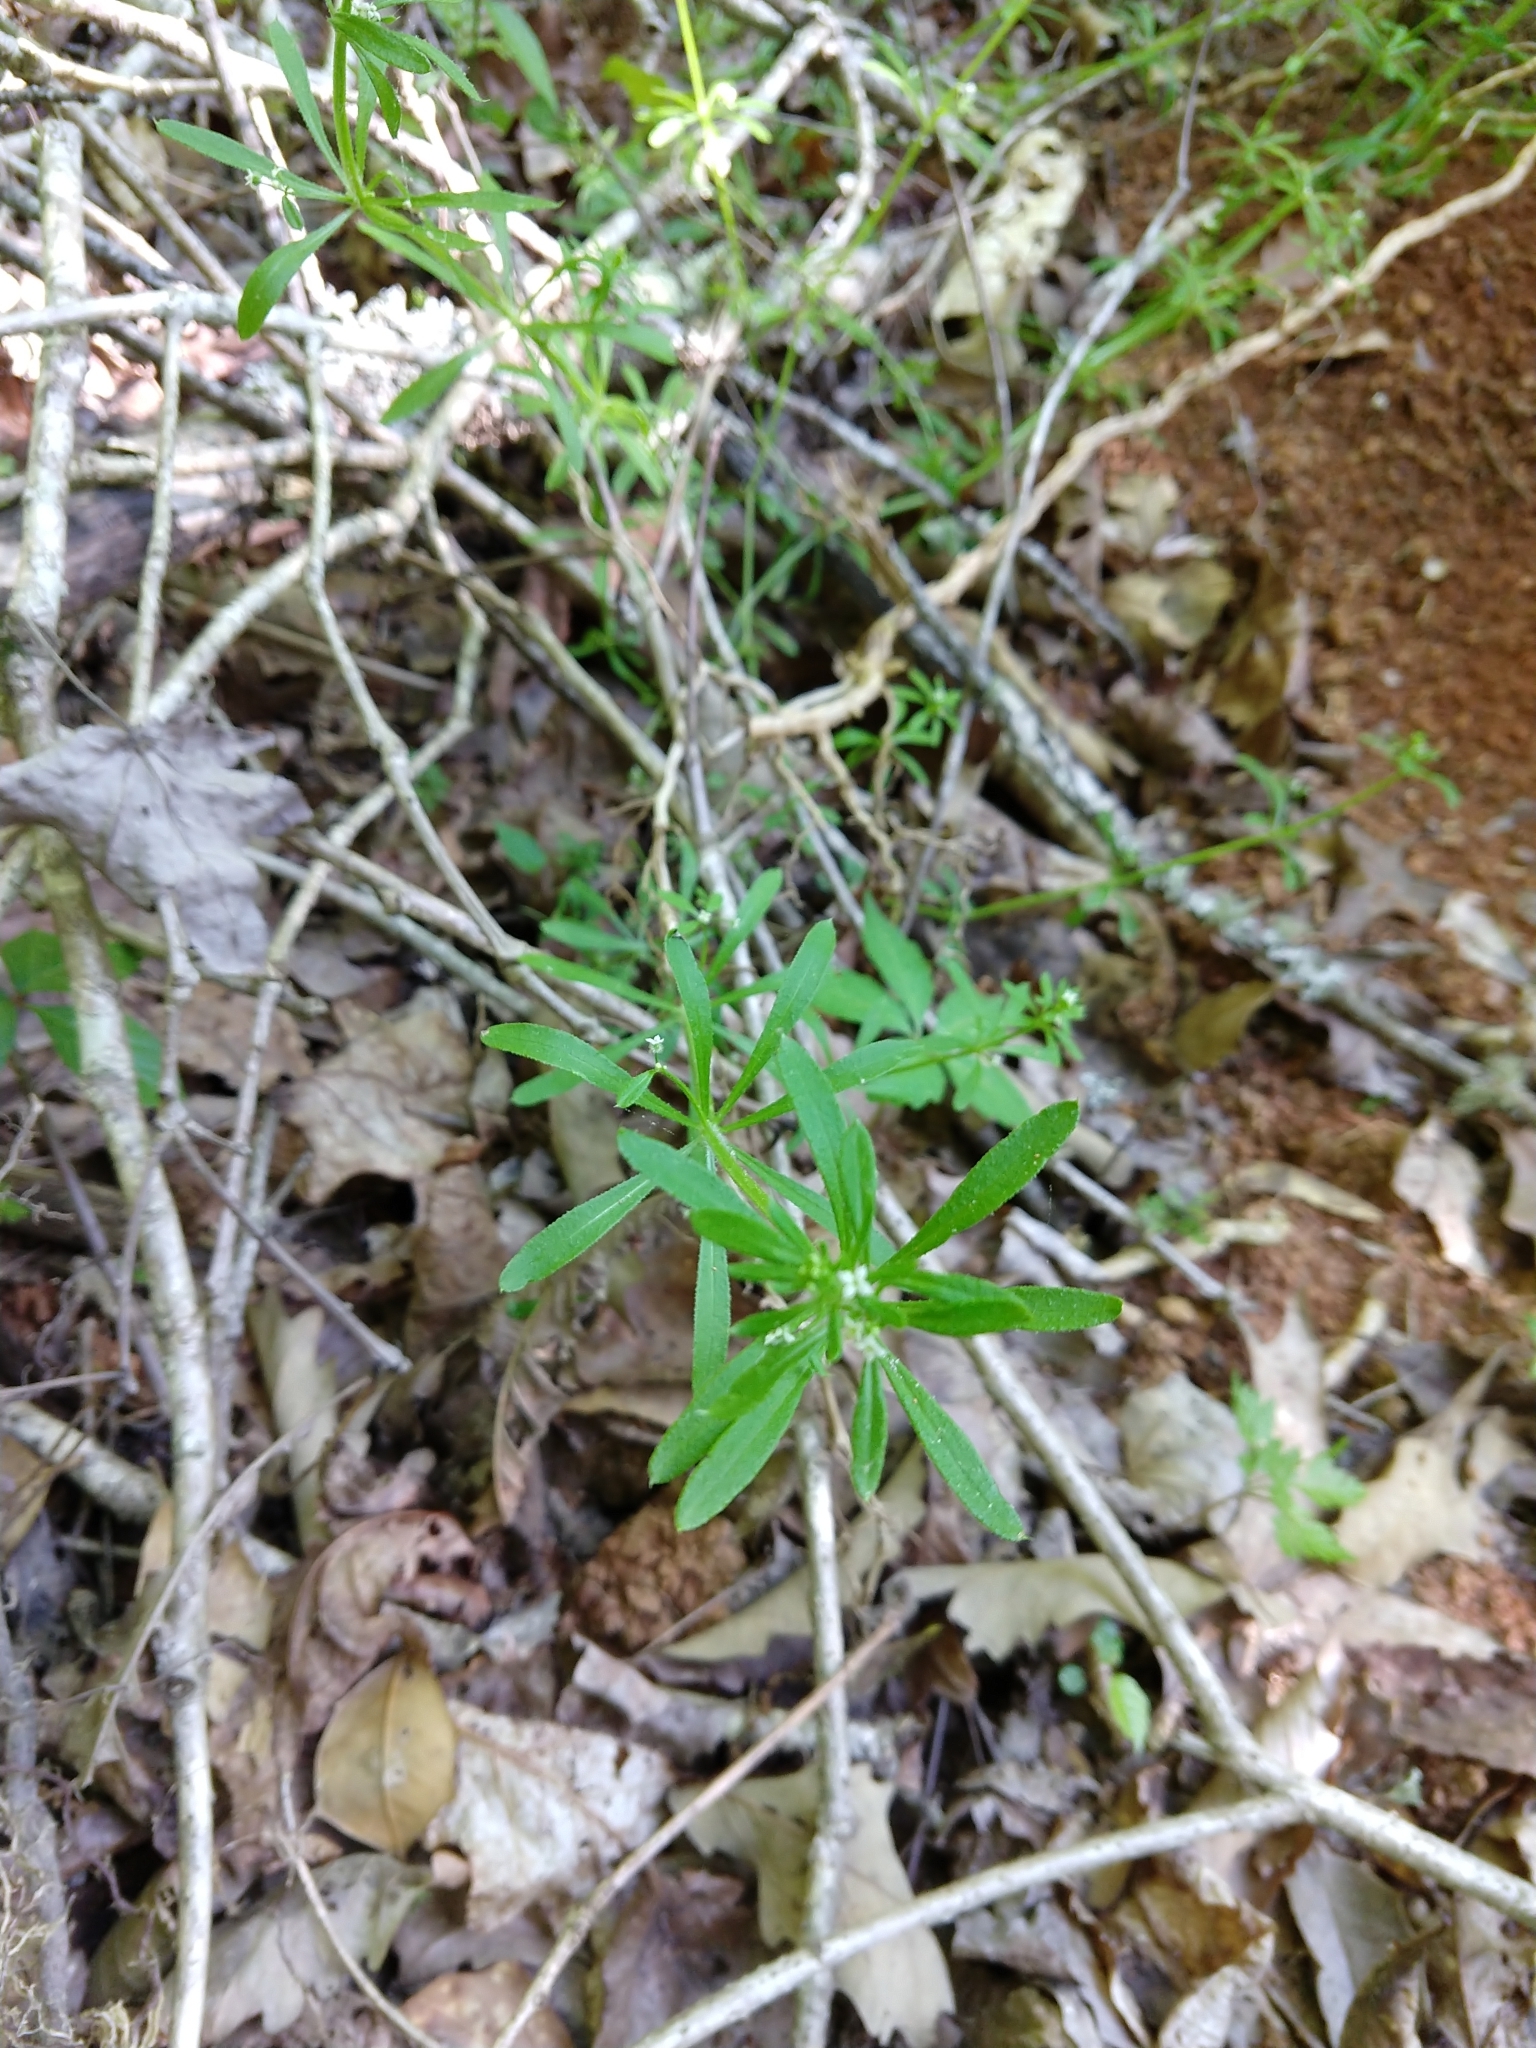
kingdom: Plantae
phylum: Tracheophyta
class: Magnoliopsida
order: Gentianales
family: Rubiaceae
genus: Galium
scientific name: Galium aparine
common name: Cleavers
